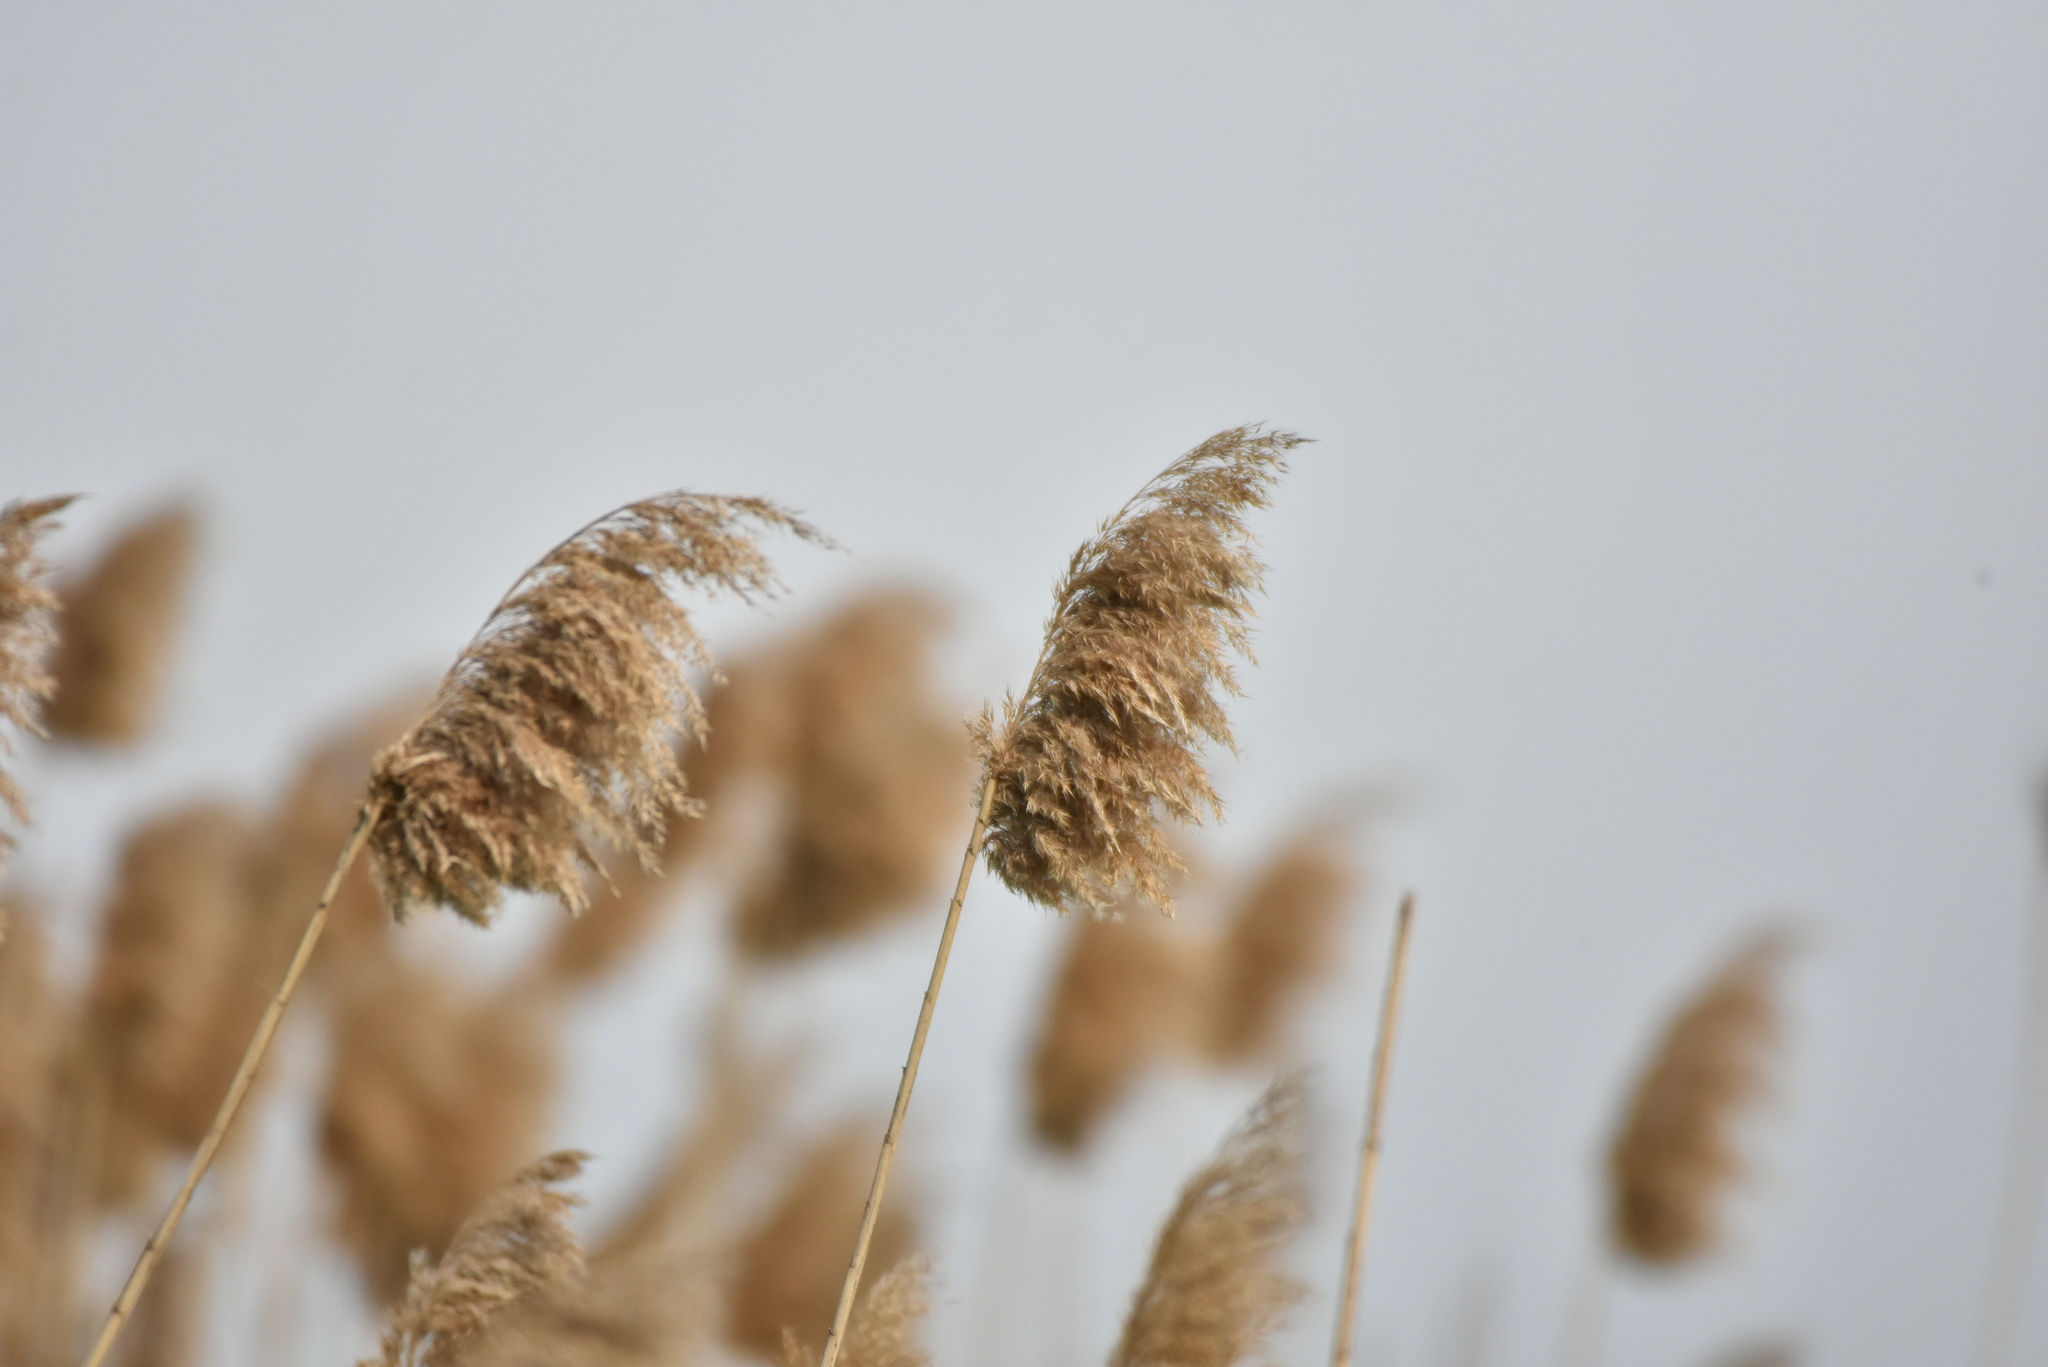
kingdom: Plantae
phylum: Tracheophyta
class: Liliopsida
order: Poales
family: Poaceae
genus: Phragmites
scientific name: Phragmites australis
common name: Common reed
